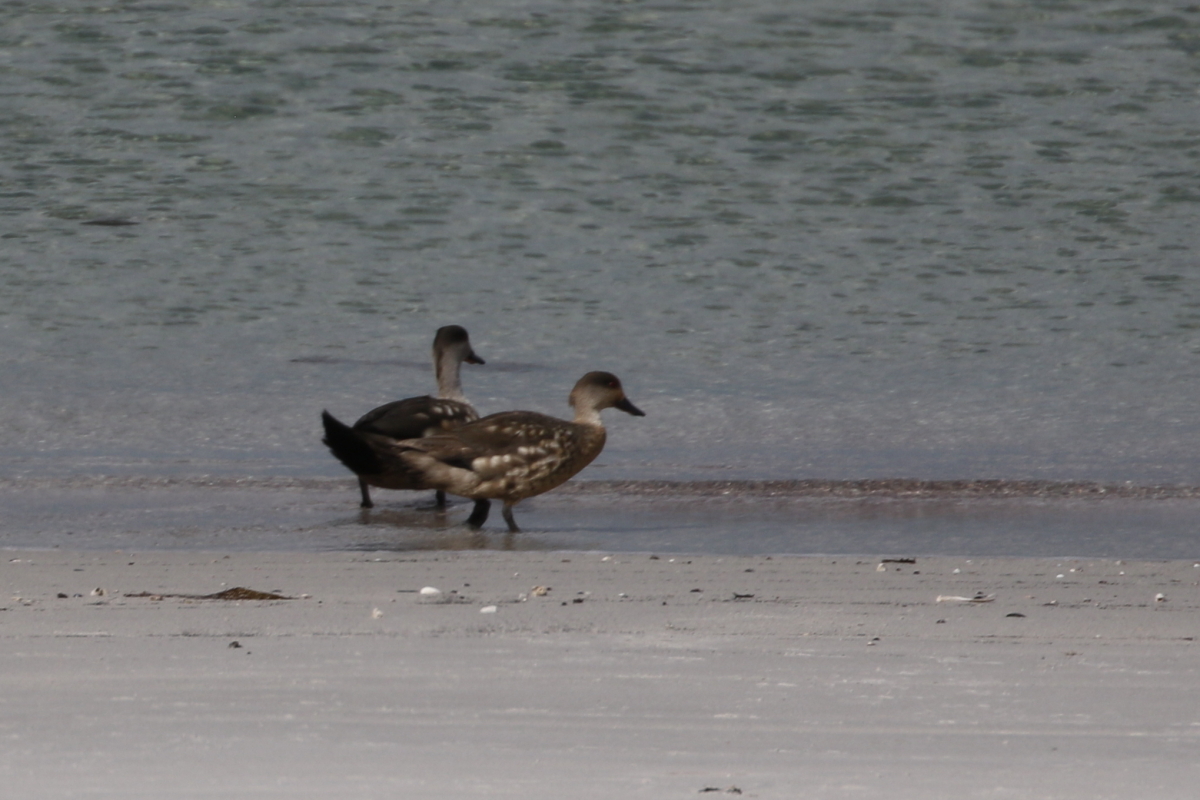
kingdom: Animalia
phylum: Chordata
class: Aves
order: Anseriformes
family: Anatidae
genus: Lophonetta
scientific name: Lophonetta specularioides
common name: Crested duck
